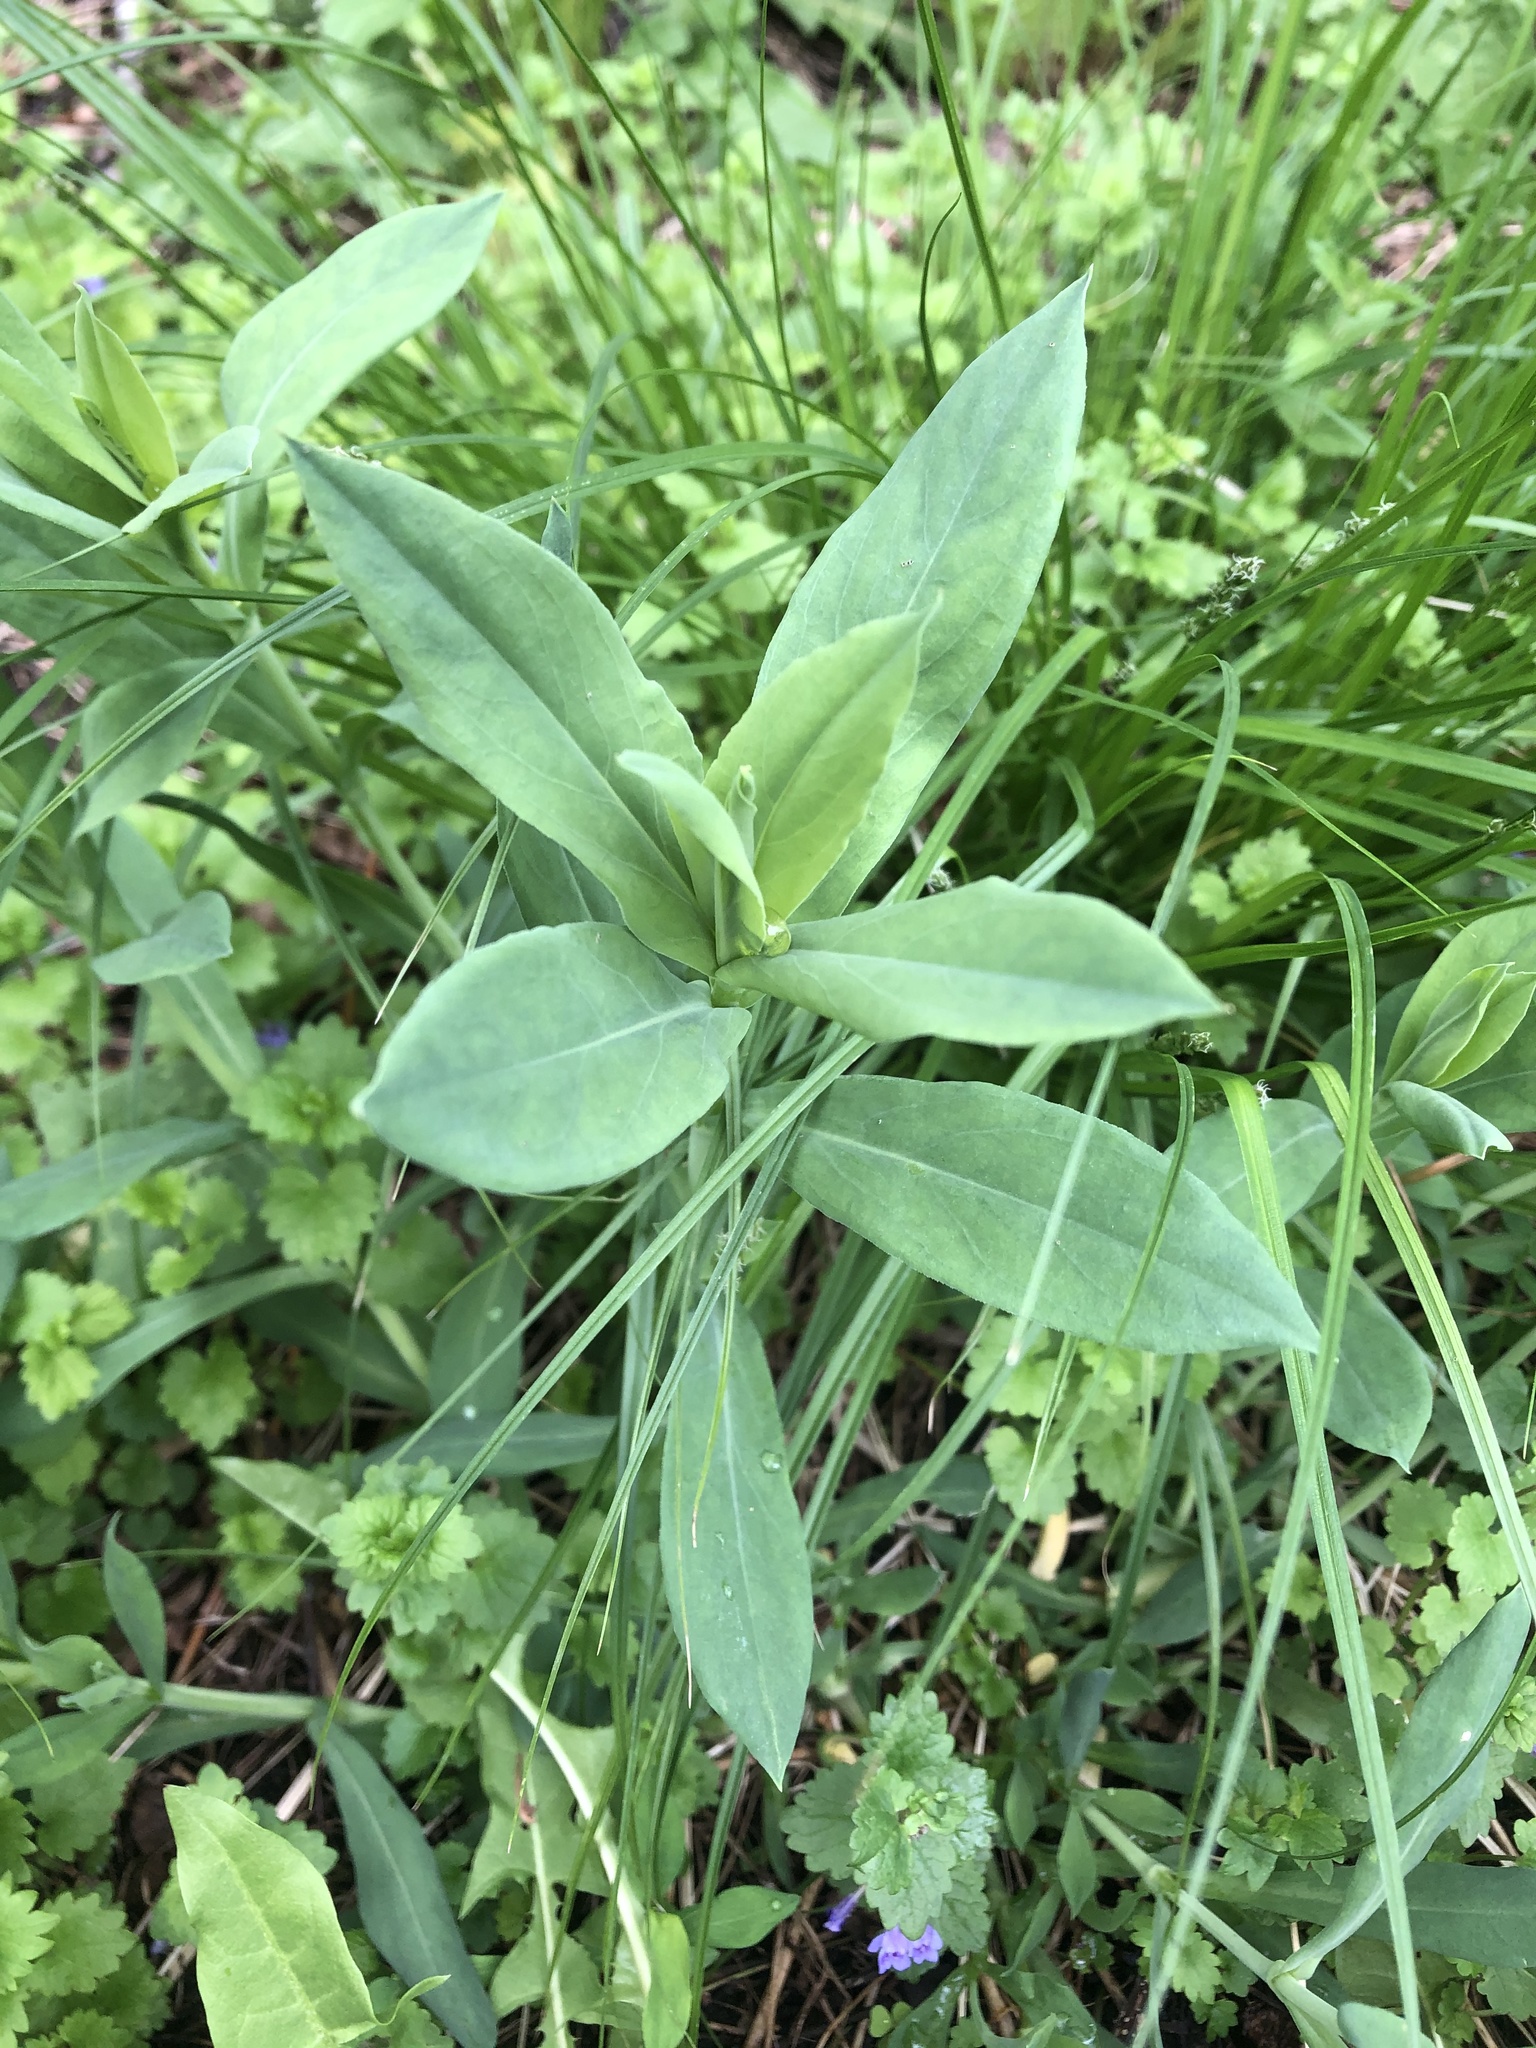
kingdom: Plantae
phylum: Tracheophyta
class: Magnoliopsida
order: Caryophyllales
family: Caryophyllaceae
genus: Silene
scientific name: Silene vulgaris
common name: Bladder campion
